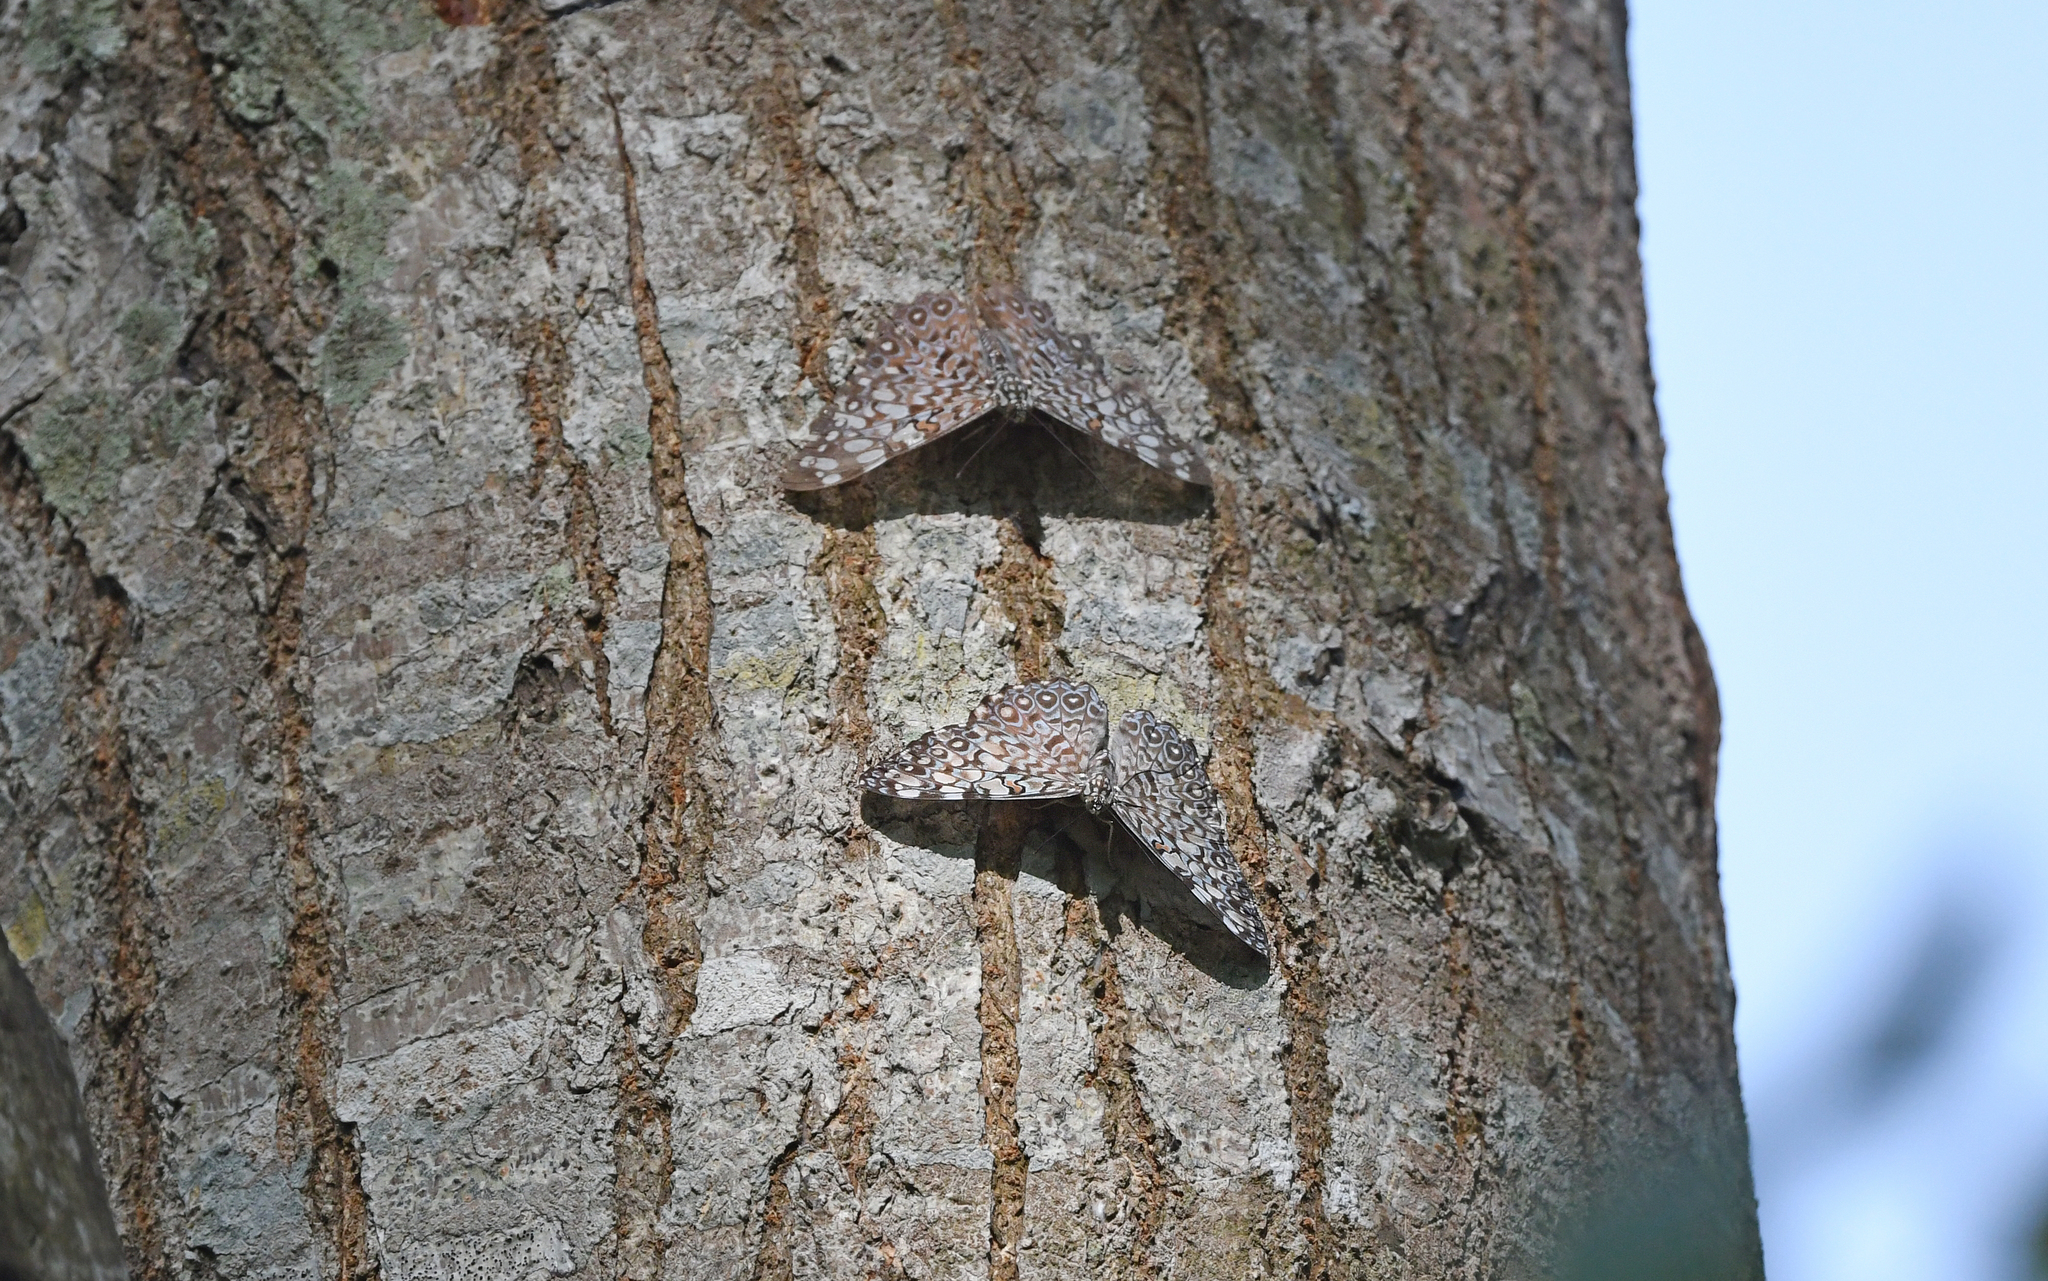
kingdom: Animalia
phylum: Arthropoda
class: Insecta
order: Lepidoptera
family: Nymphalidae
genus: Hamadryas
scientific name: Hamadryas feronia
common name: Variable cracker
